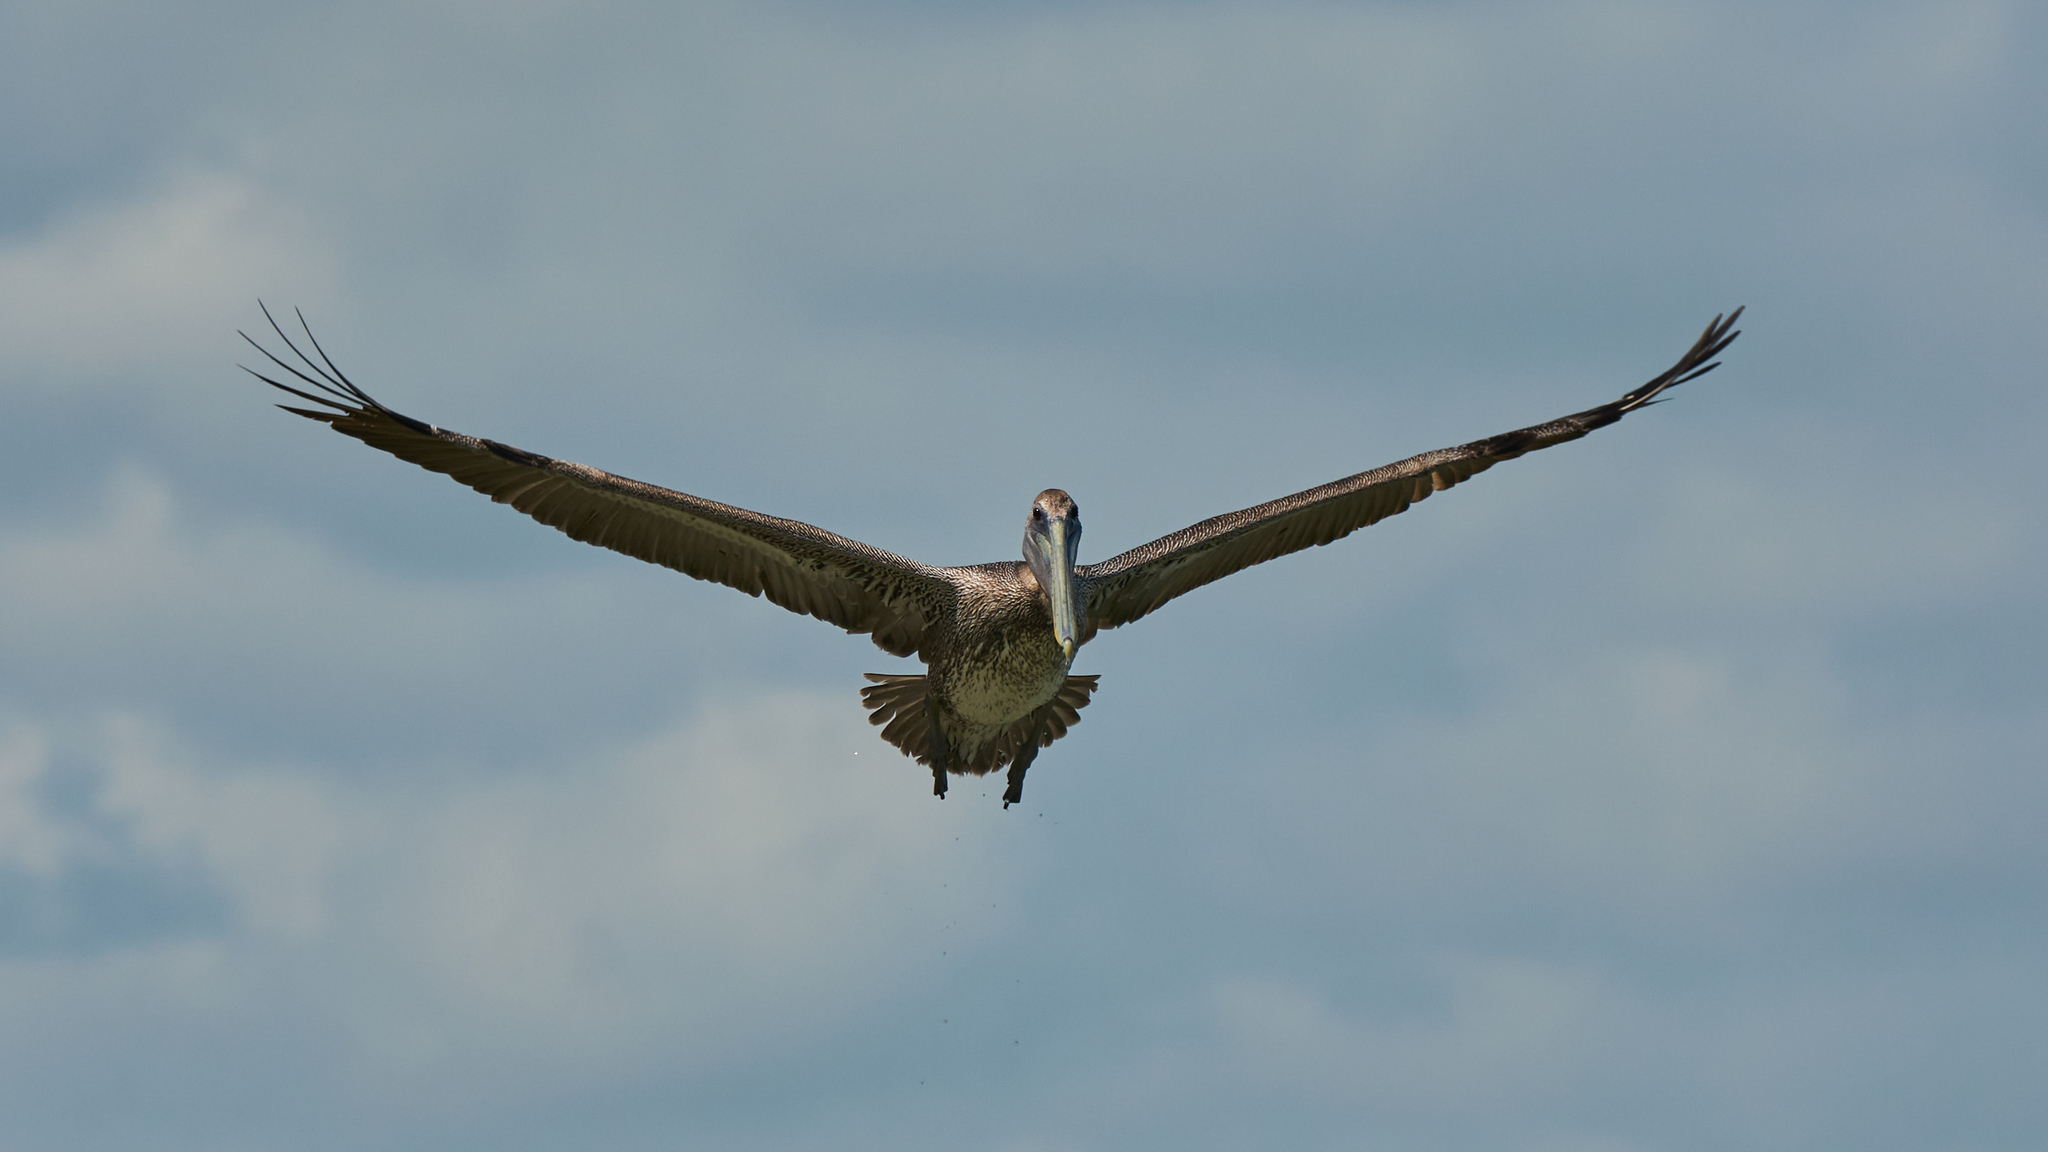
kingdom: Animalia
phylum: Chordata
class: Aves
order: Pelecaniformes
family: Pelecanidae
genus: Pelecanus
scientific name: Pelecanus occidentalis
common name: Brown pelican
